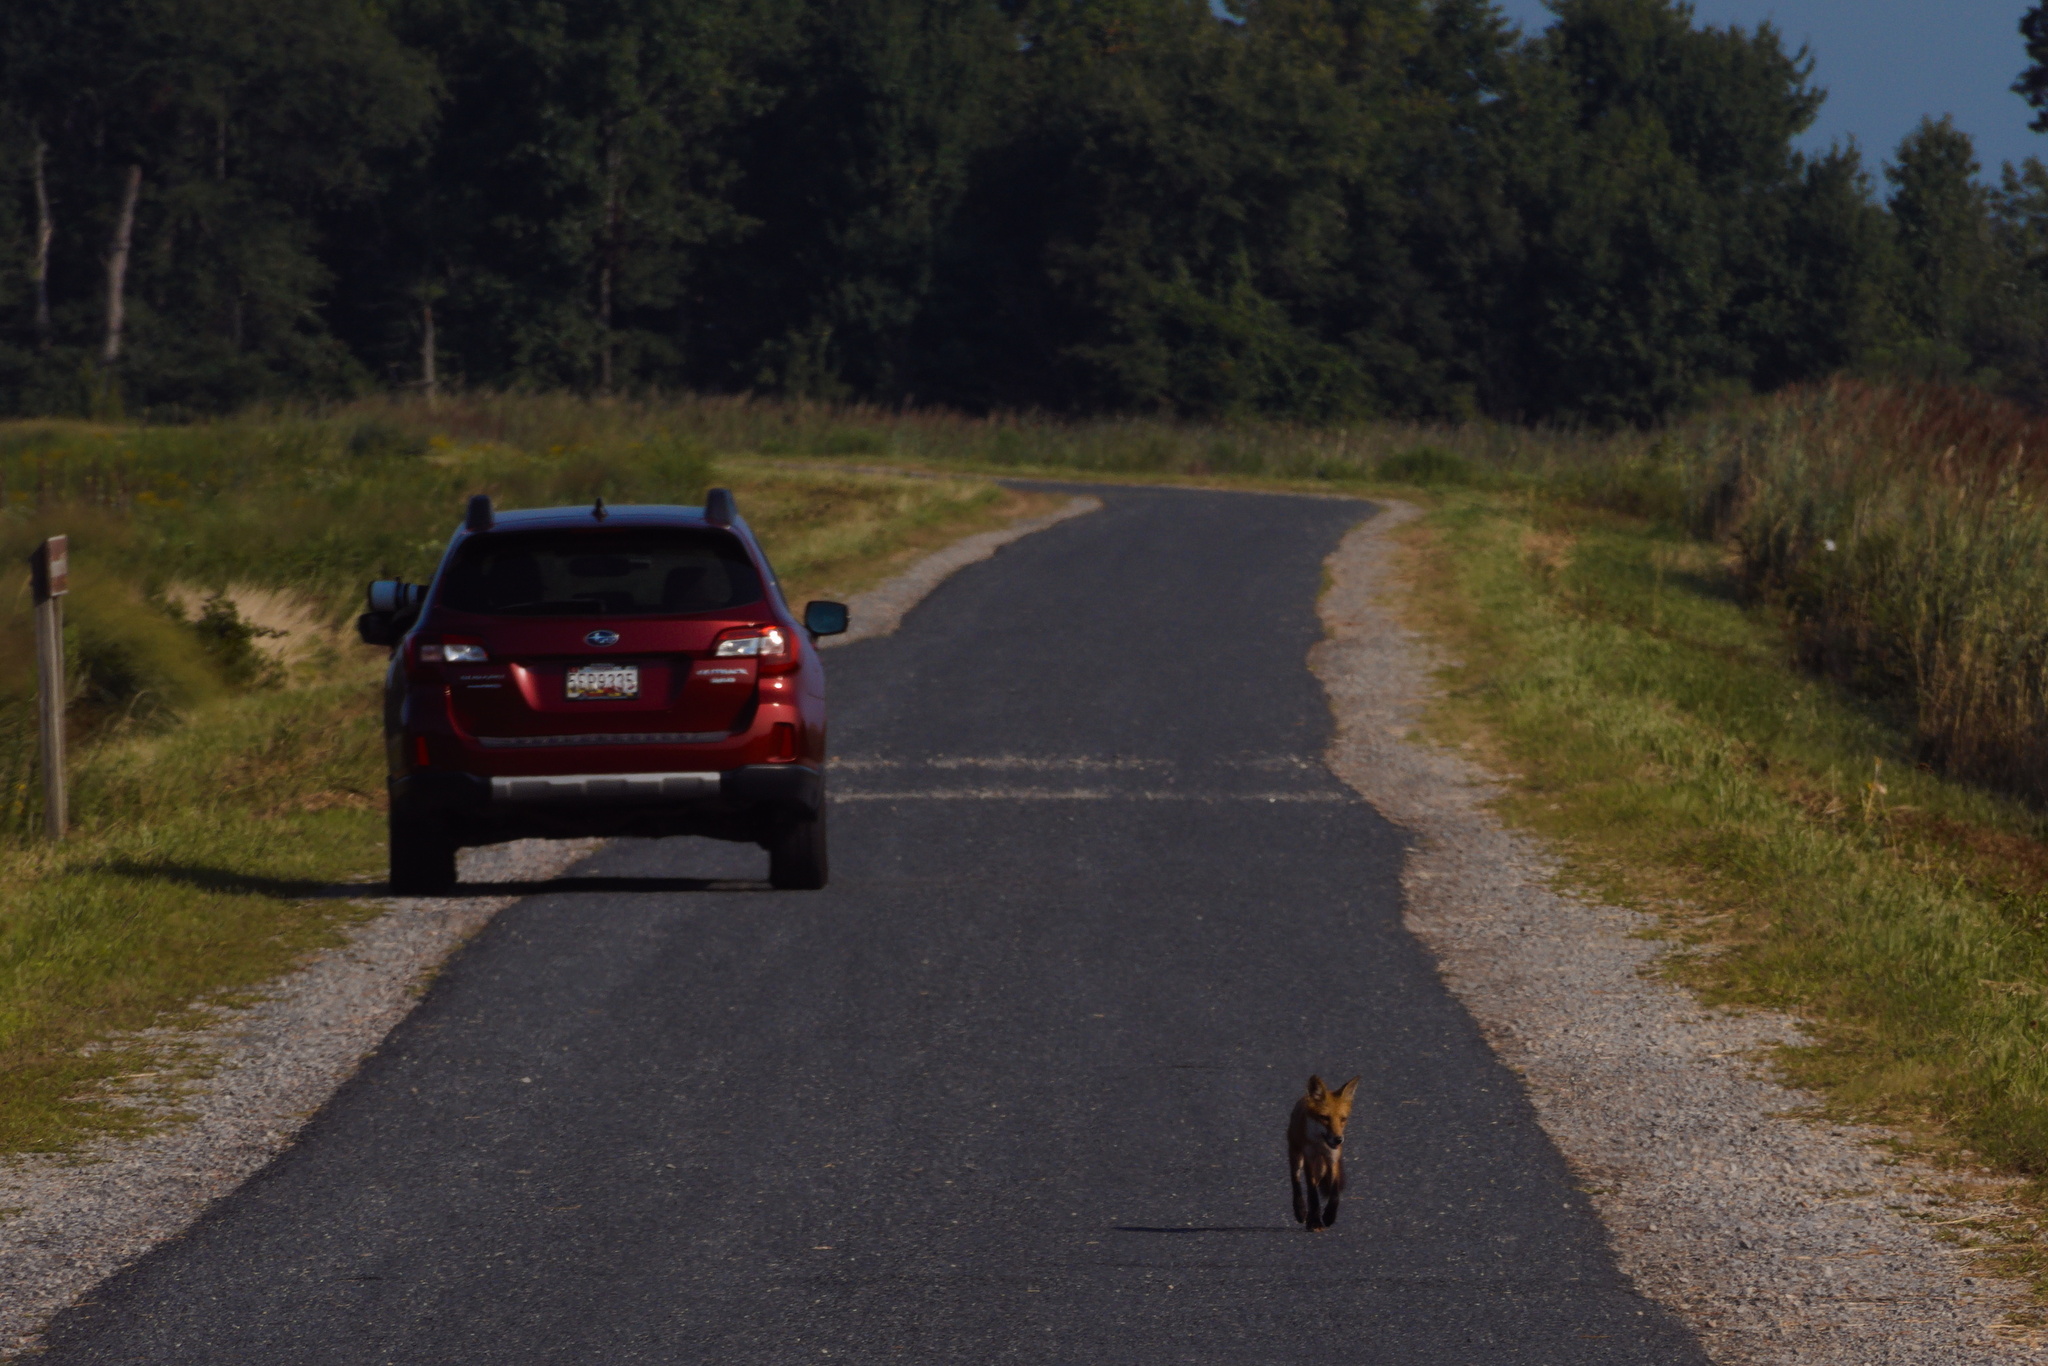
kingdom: Animalia
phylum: Chordata
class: Mammalia
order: Carnivora
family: Canidae
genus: Vulpes
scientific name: Vulpes vulpes
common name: Red fox
